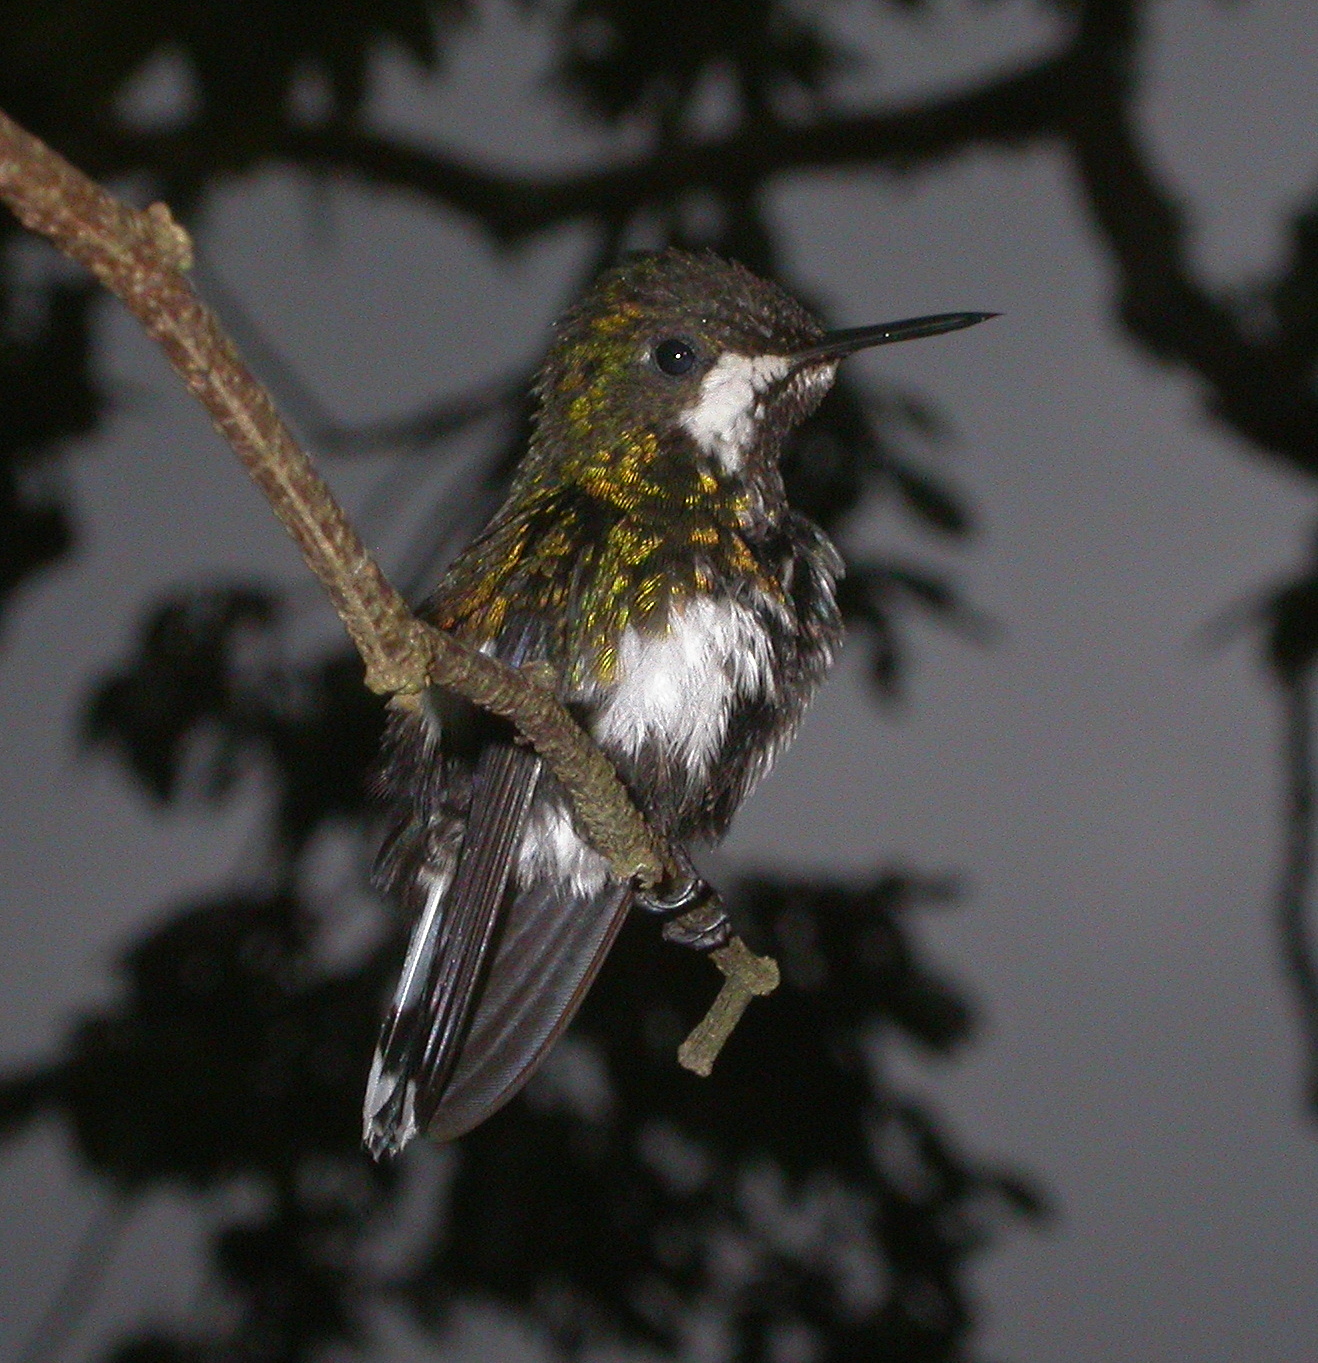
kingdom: Animalia
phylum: Chordata
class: Aves
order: Apodiformes
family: Trochilidae
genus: Discosura
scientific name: Discosura conversii
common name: Green thorntail
